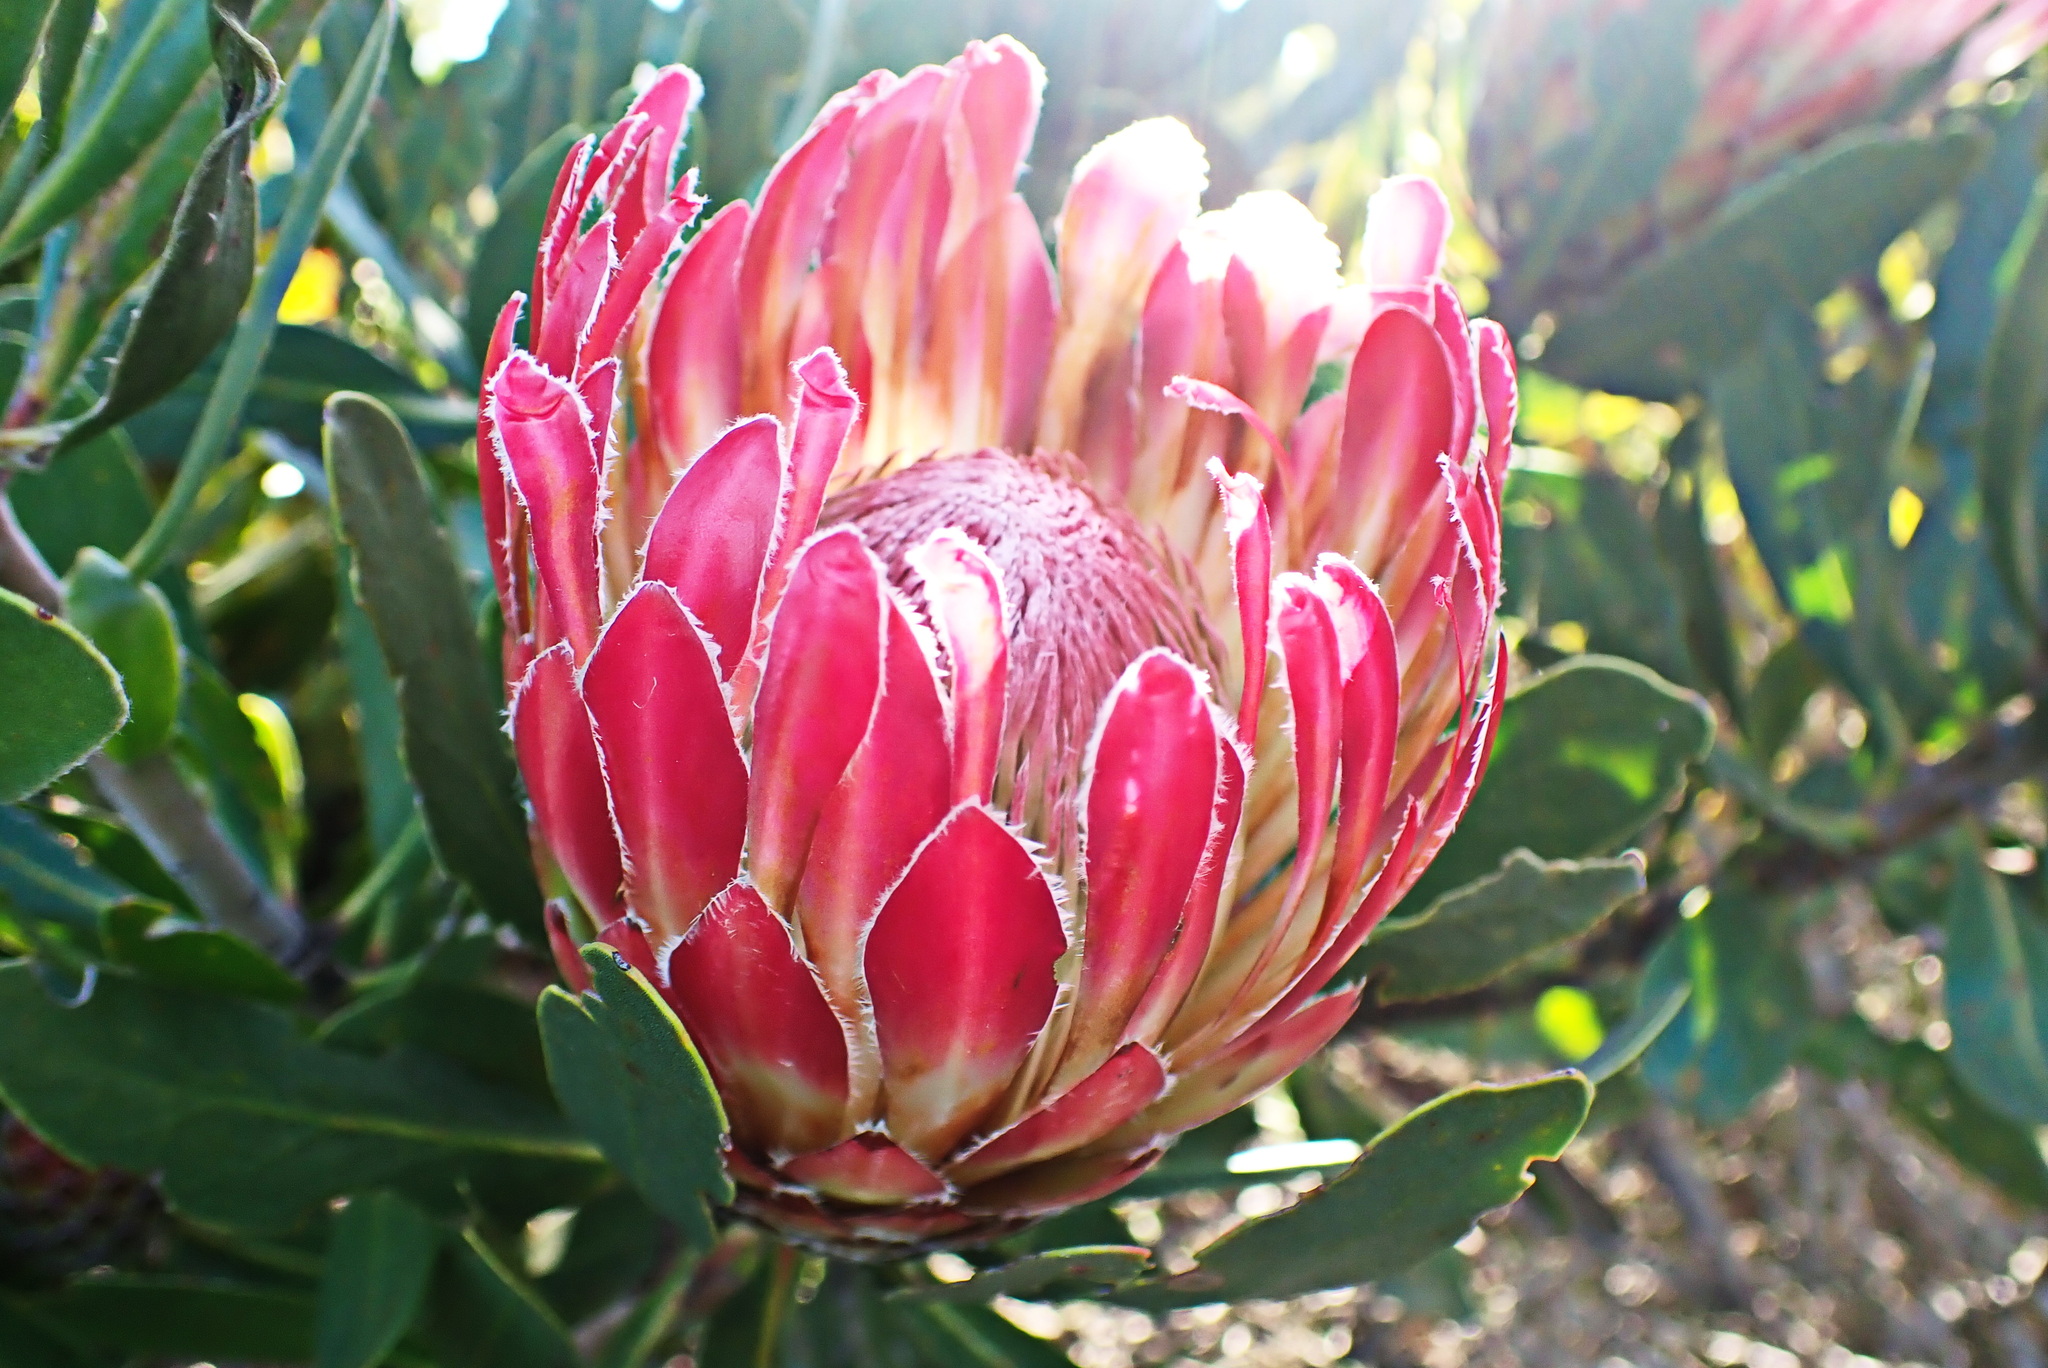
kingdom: Plantae
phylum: Tracheophyta
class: Magnoliopsida
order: Proteales
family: Proteaceae
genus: Protea
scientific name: Protea obtusifolia
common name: Bredasdorp sugarbush
